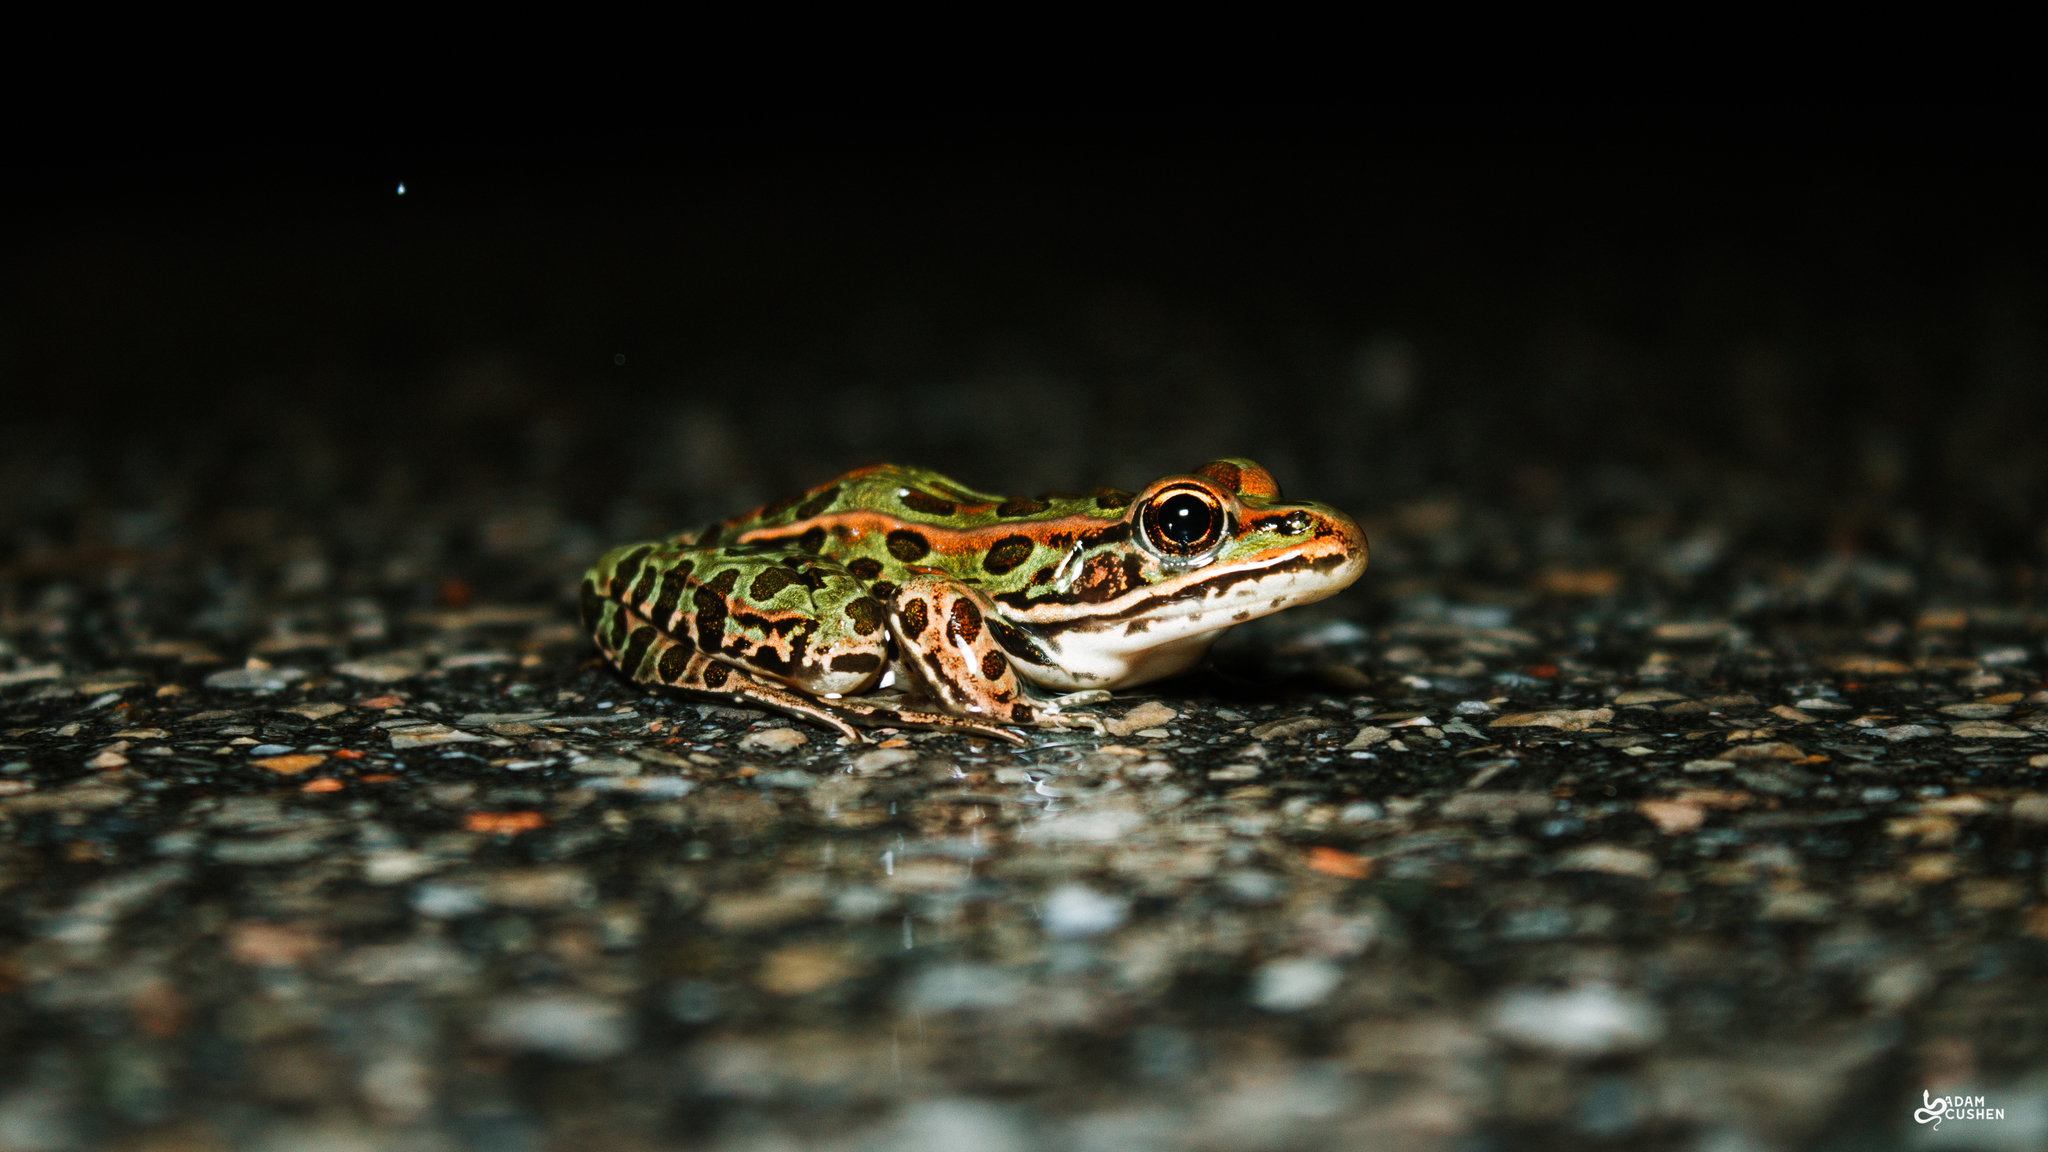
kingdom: Animalia
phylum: Chordata
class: Amphibia
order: Anura
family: Ranidae
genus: Lithobates
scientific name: Lithobates pipiens
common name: Northern leopard frog
